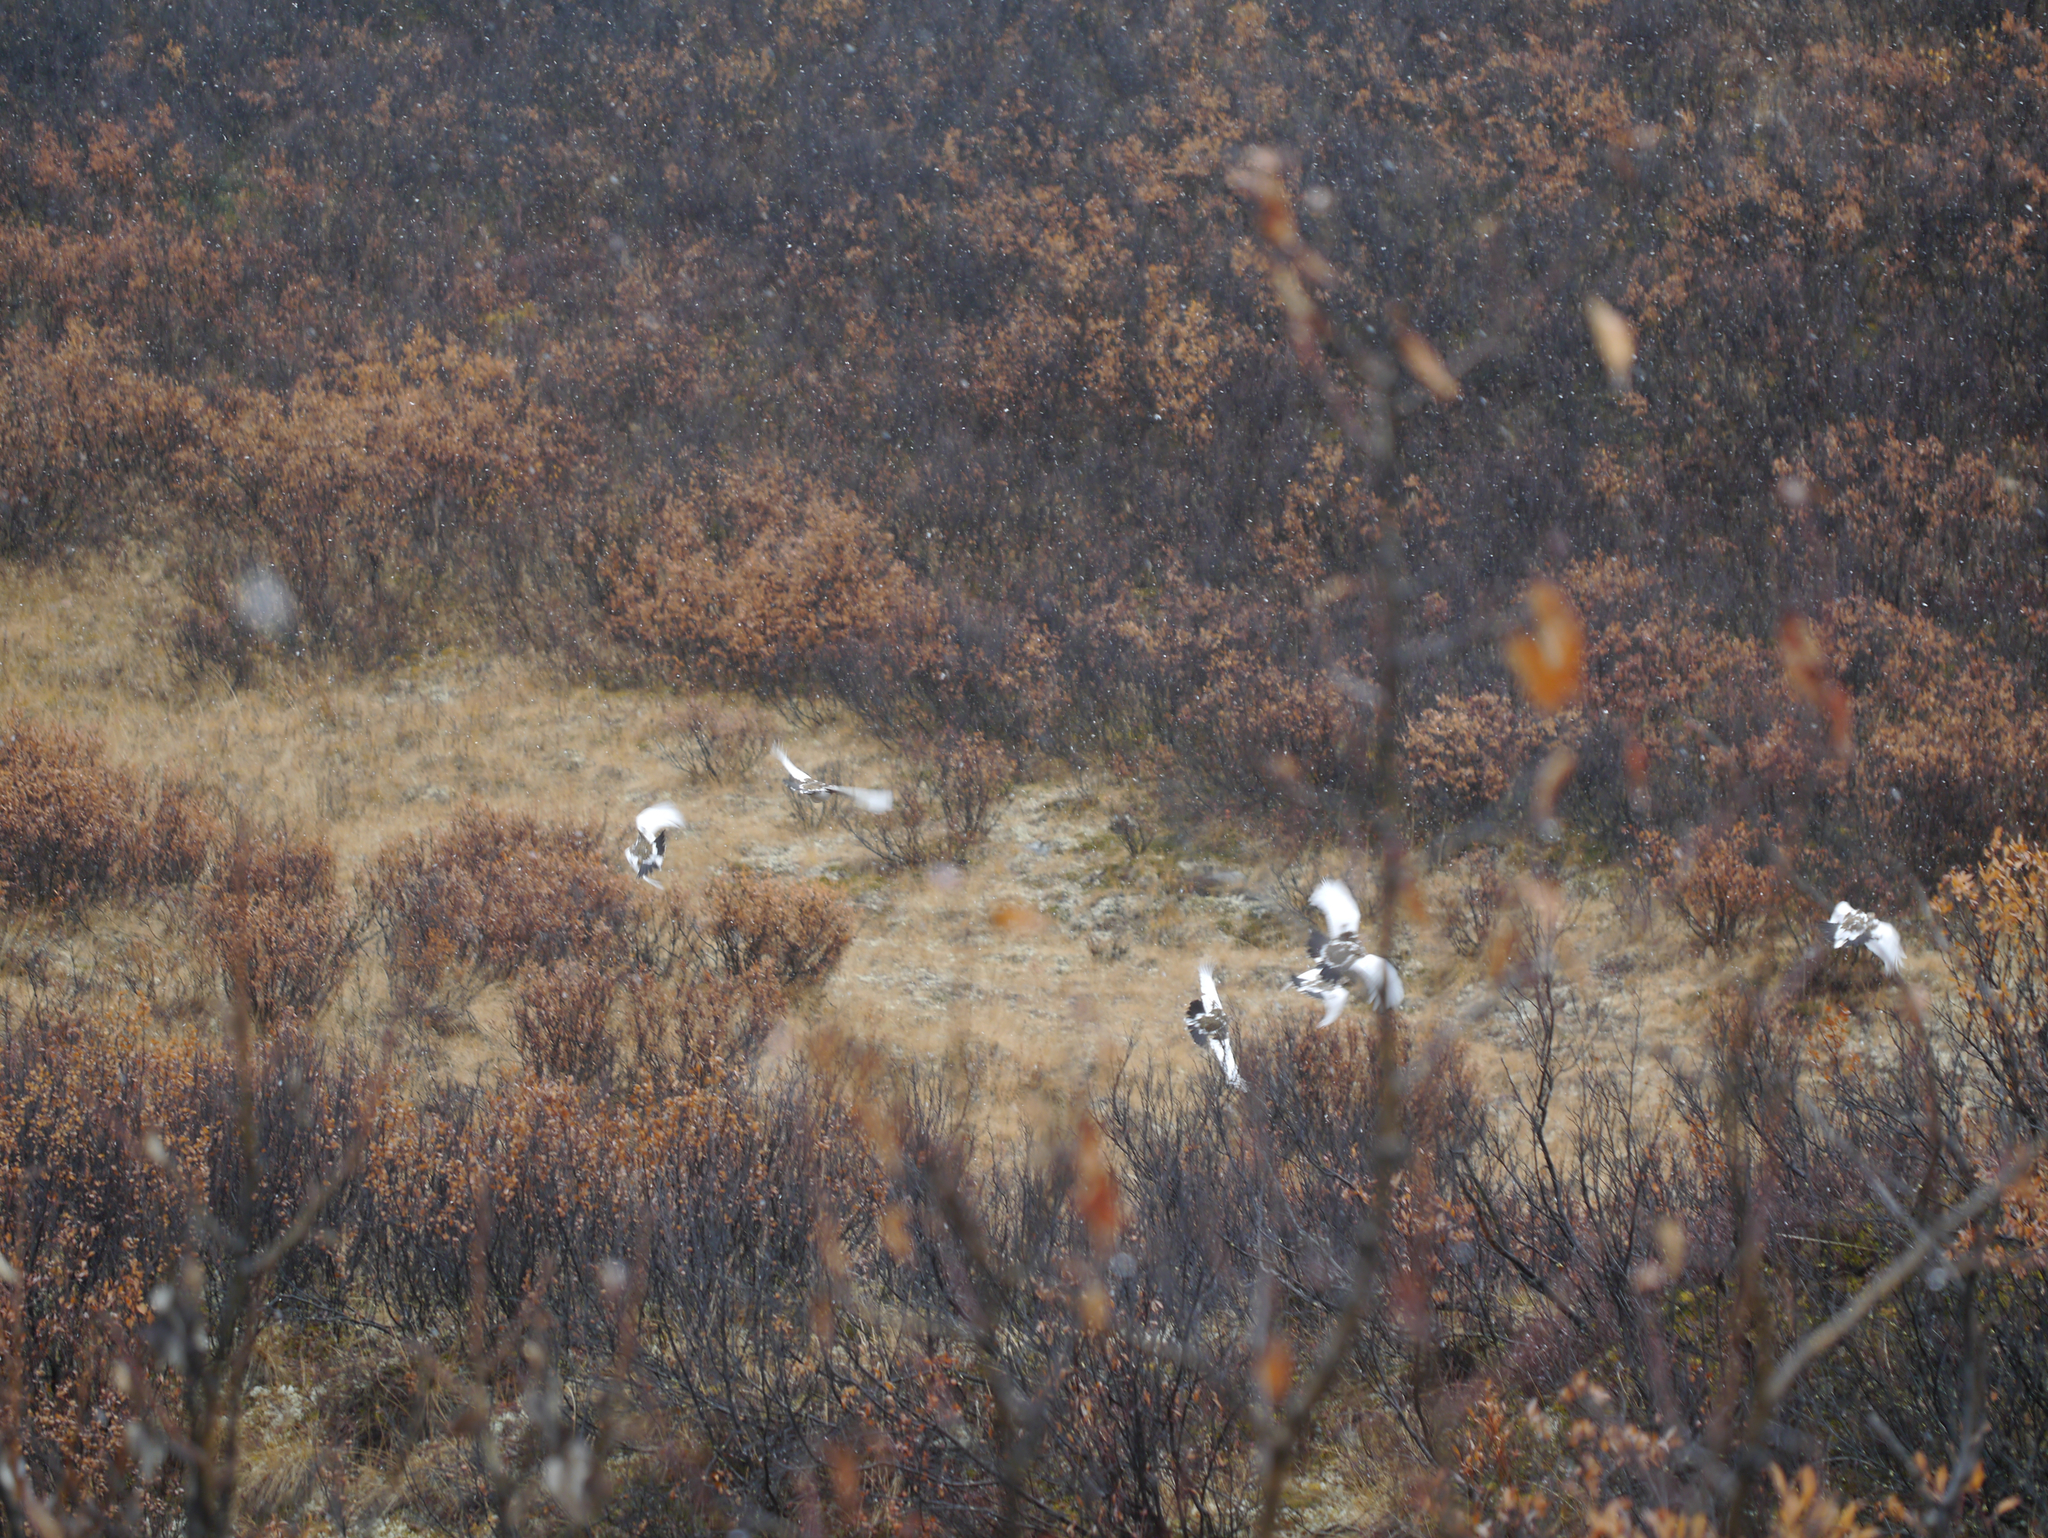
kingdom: Animalia
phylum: Chordata
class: Aves
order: Galliformes
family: Phasianidae
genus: Lagopus
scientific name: Lagopus lagopus
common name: Willow ptarmigan
